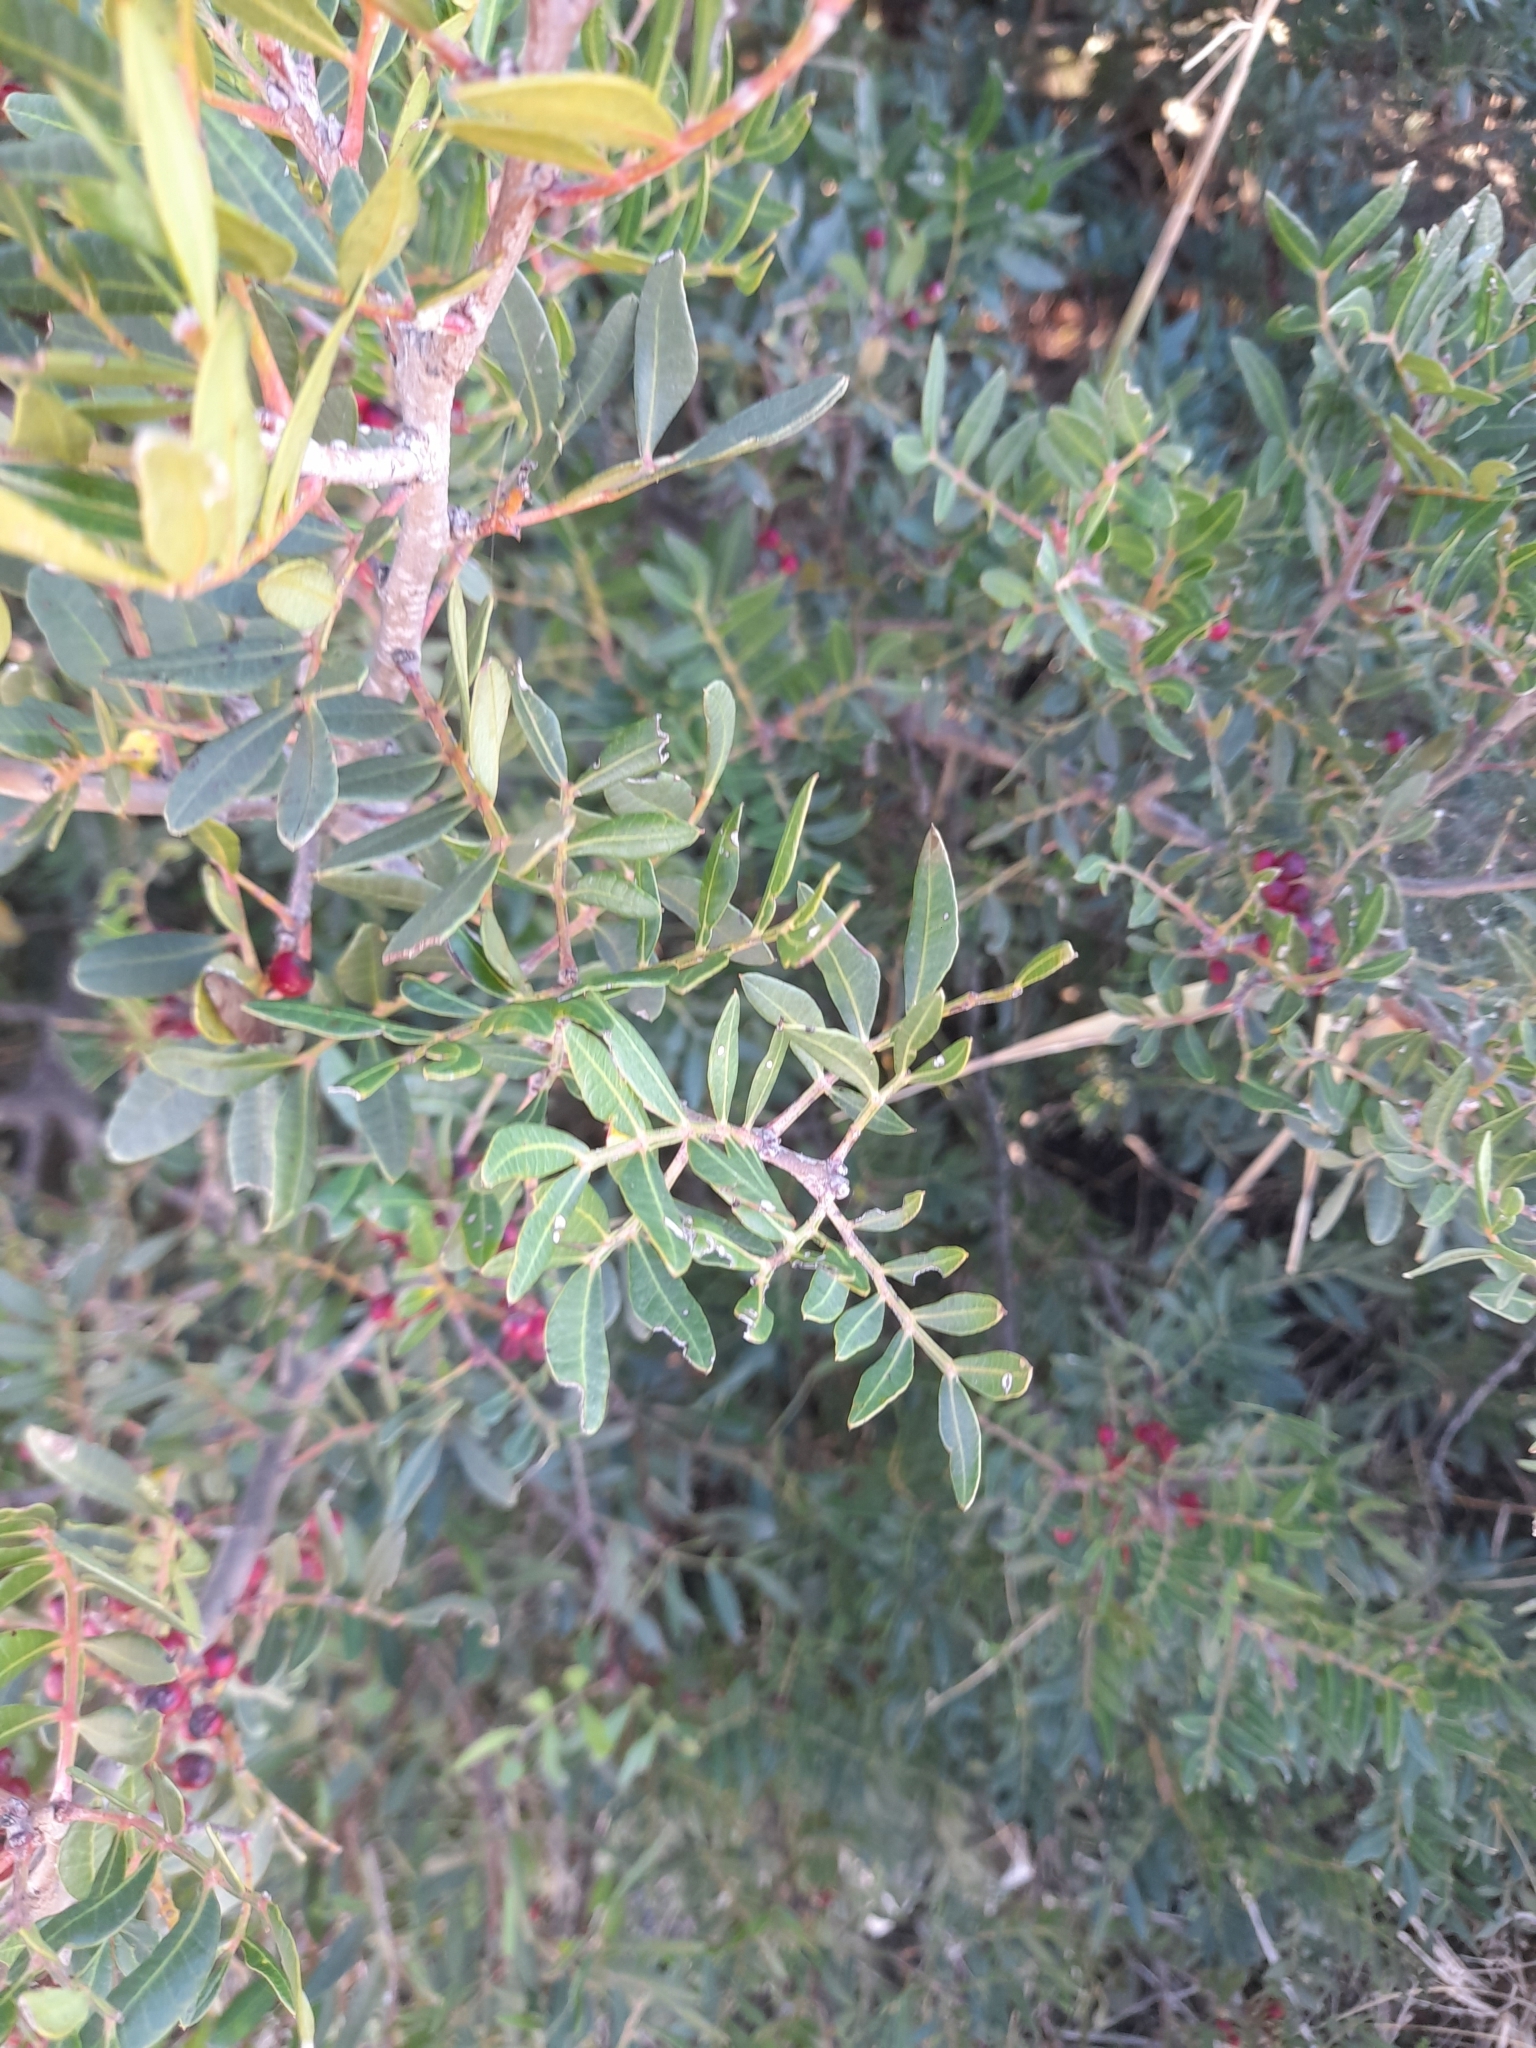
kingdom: Plantae
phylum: Tracheophyta
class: Magnoliopsida
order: Sapindales
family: Anacardiaceae
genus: Pistacia
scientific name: Pistacia lentiscus
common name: Lentisk
